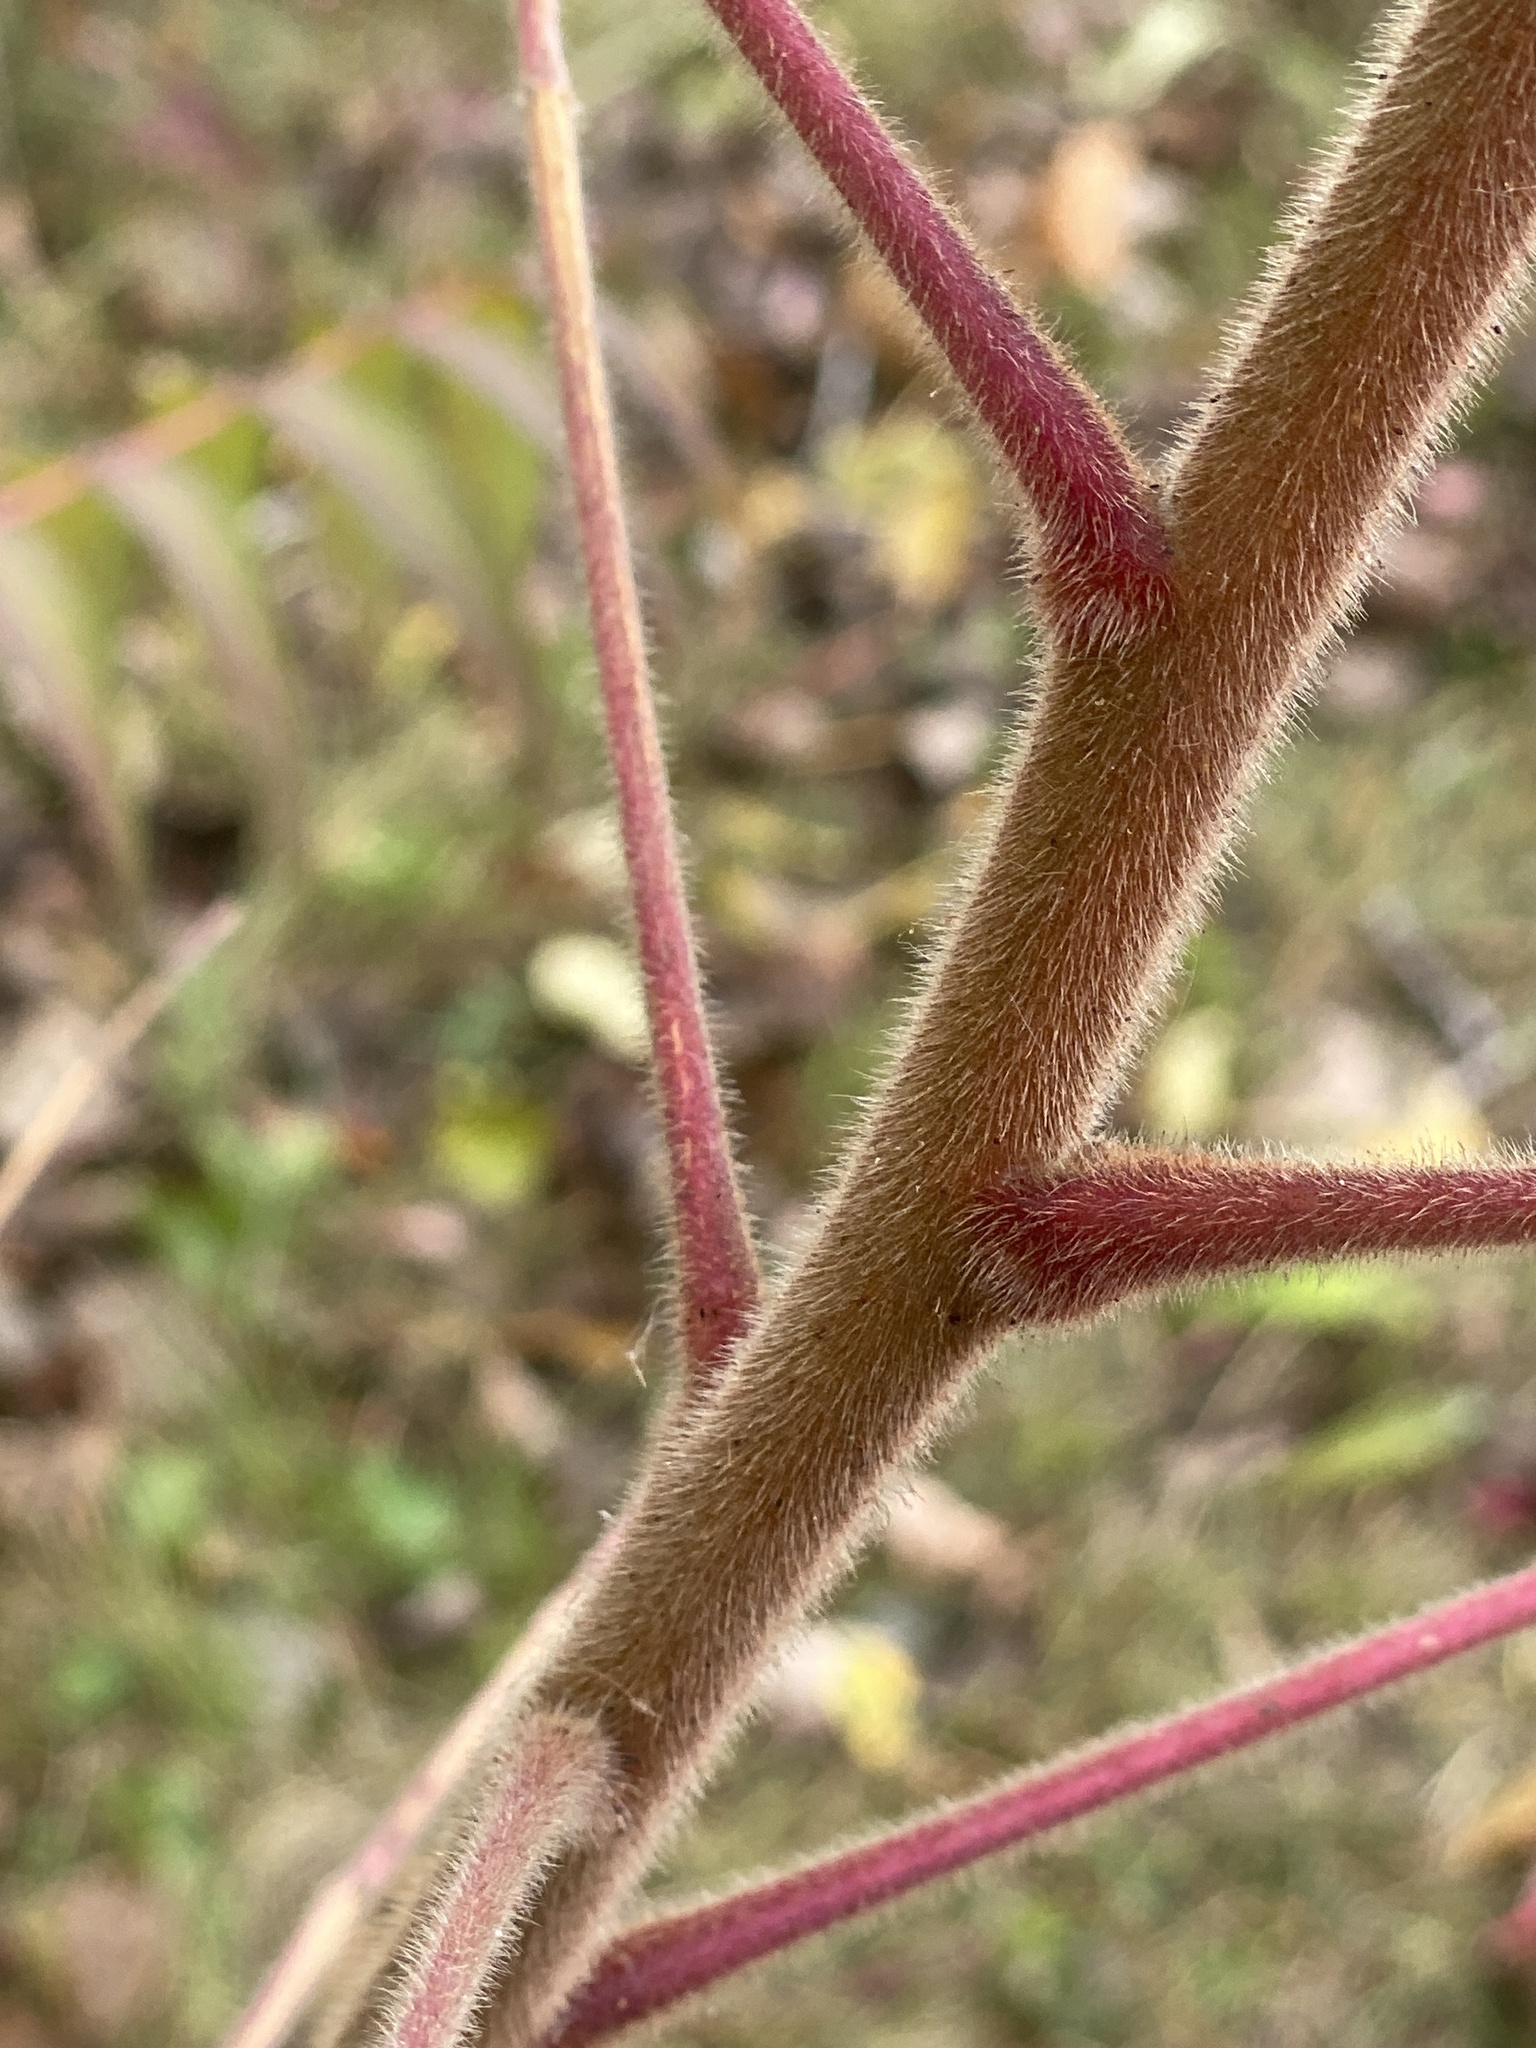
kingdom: Plantae
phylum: Tracheophyta
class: Magnoliopsida
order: Sapindales
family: Anacardiaceae
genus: Rhus
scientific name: Rhus typhina
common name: Staghorn sumac
